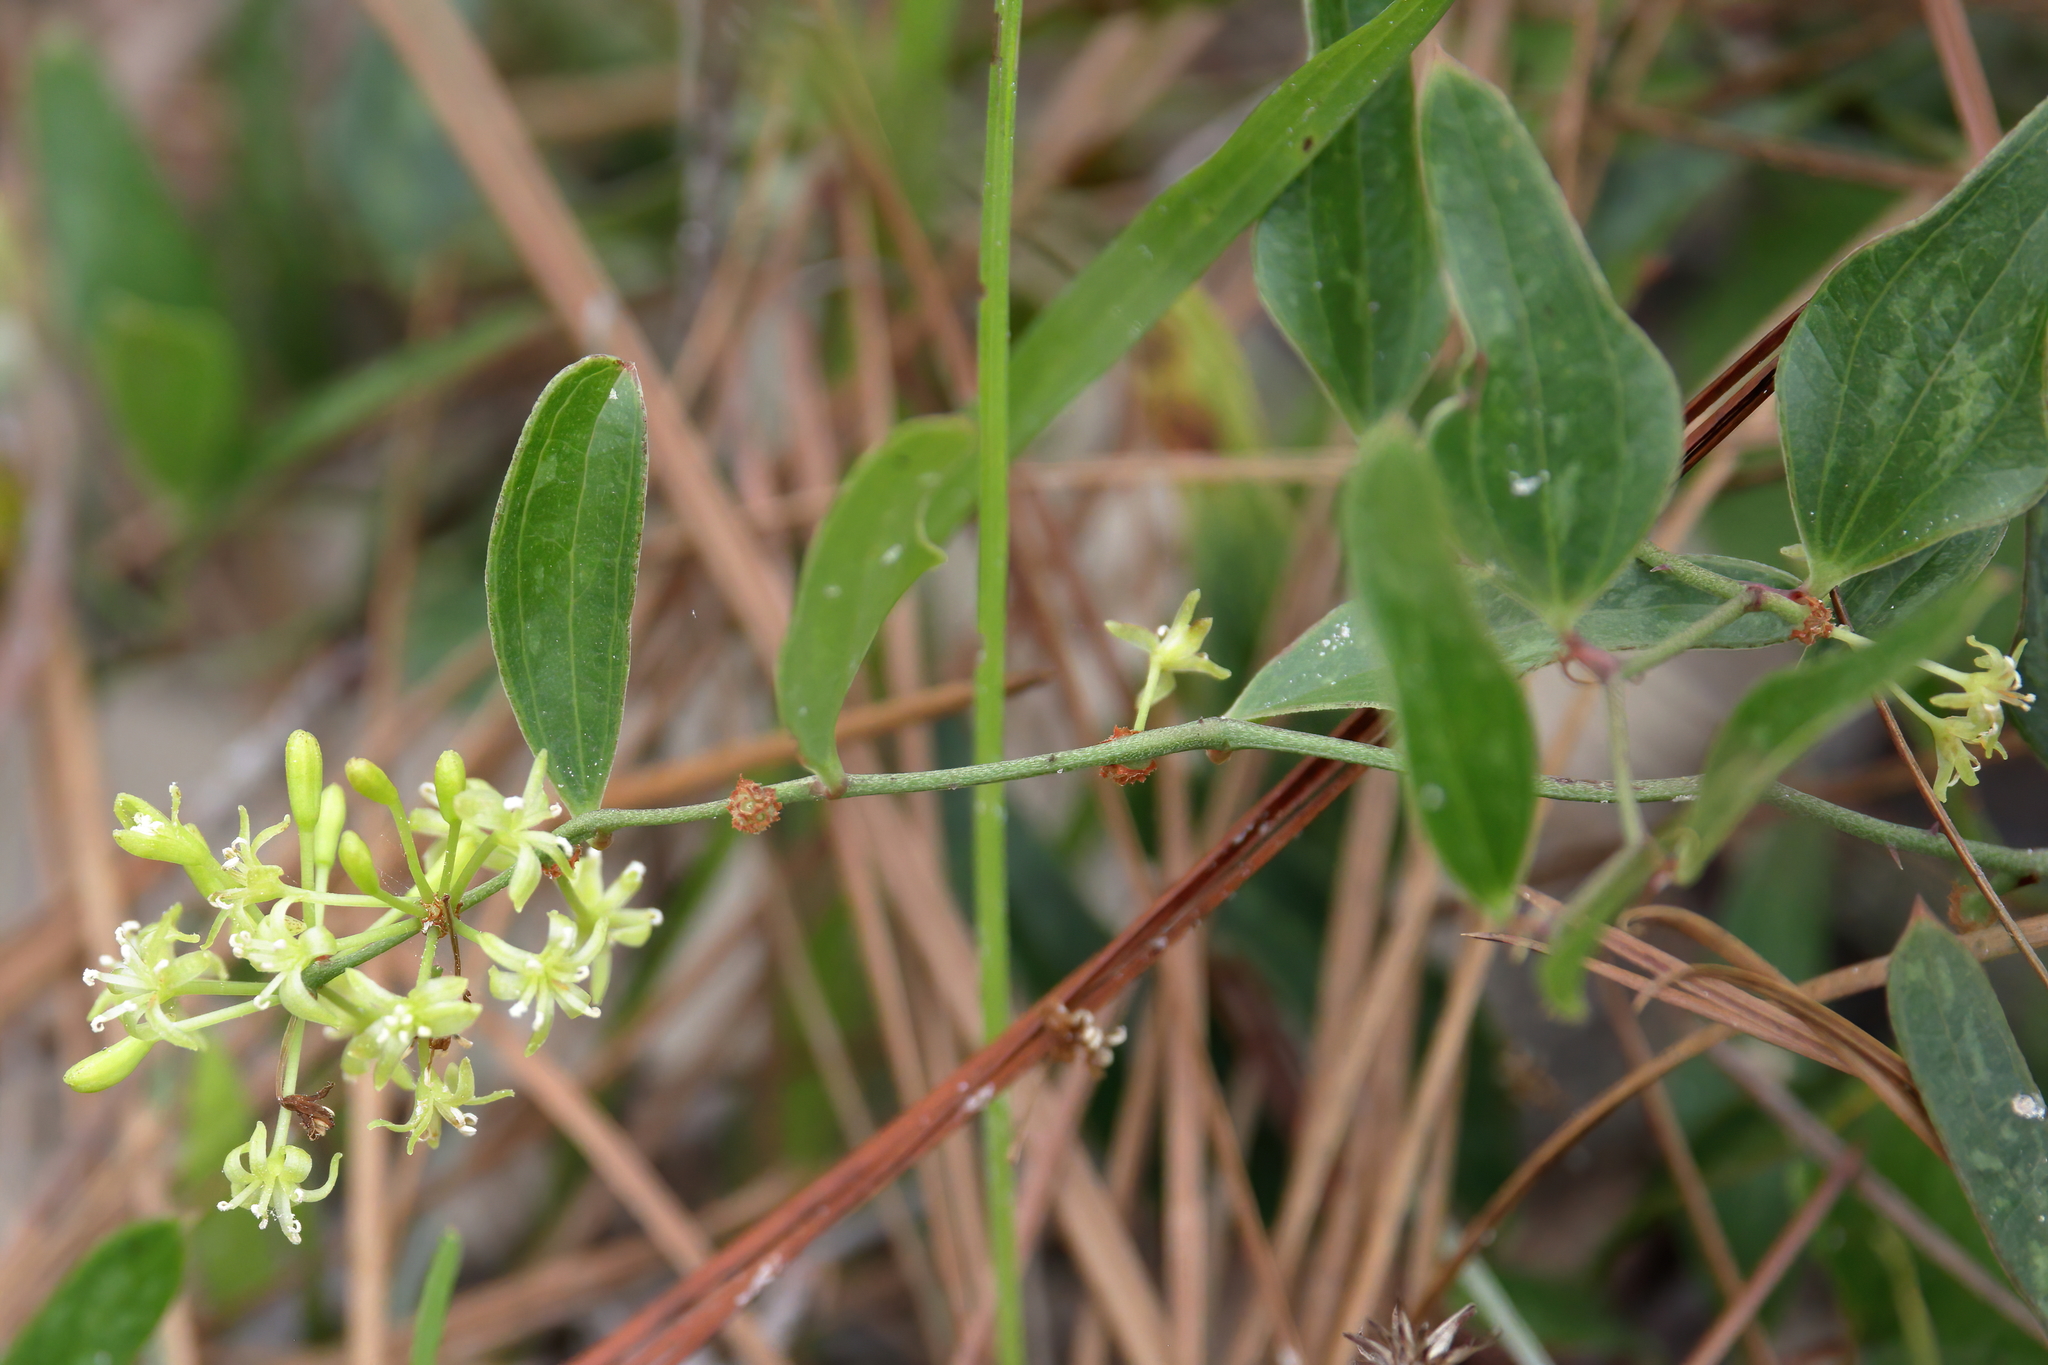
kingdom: Plantae
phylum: Tracheophyta
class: Liliopsida
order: Liliales
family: Smilacaceae
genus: Smilax
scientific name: Smilax auriculata
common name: Wild bamboo
